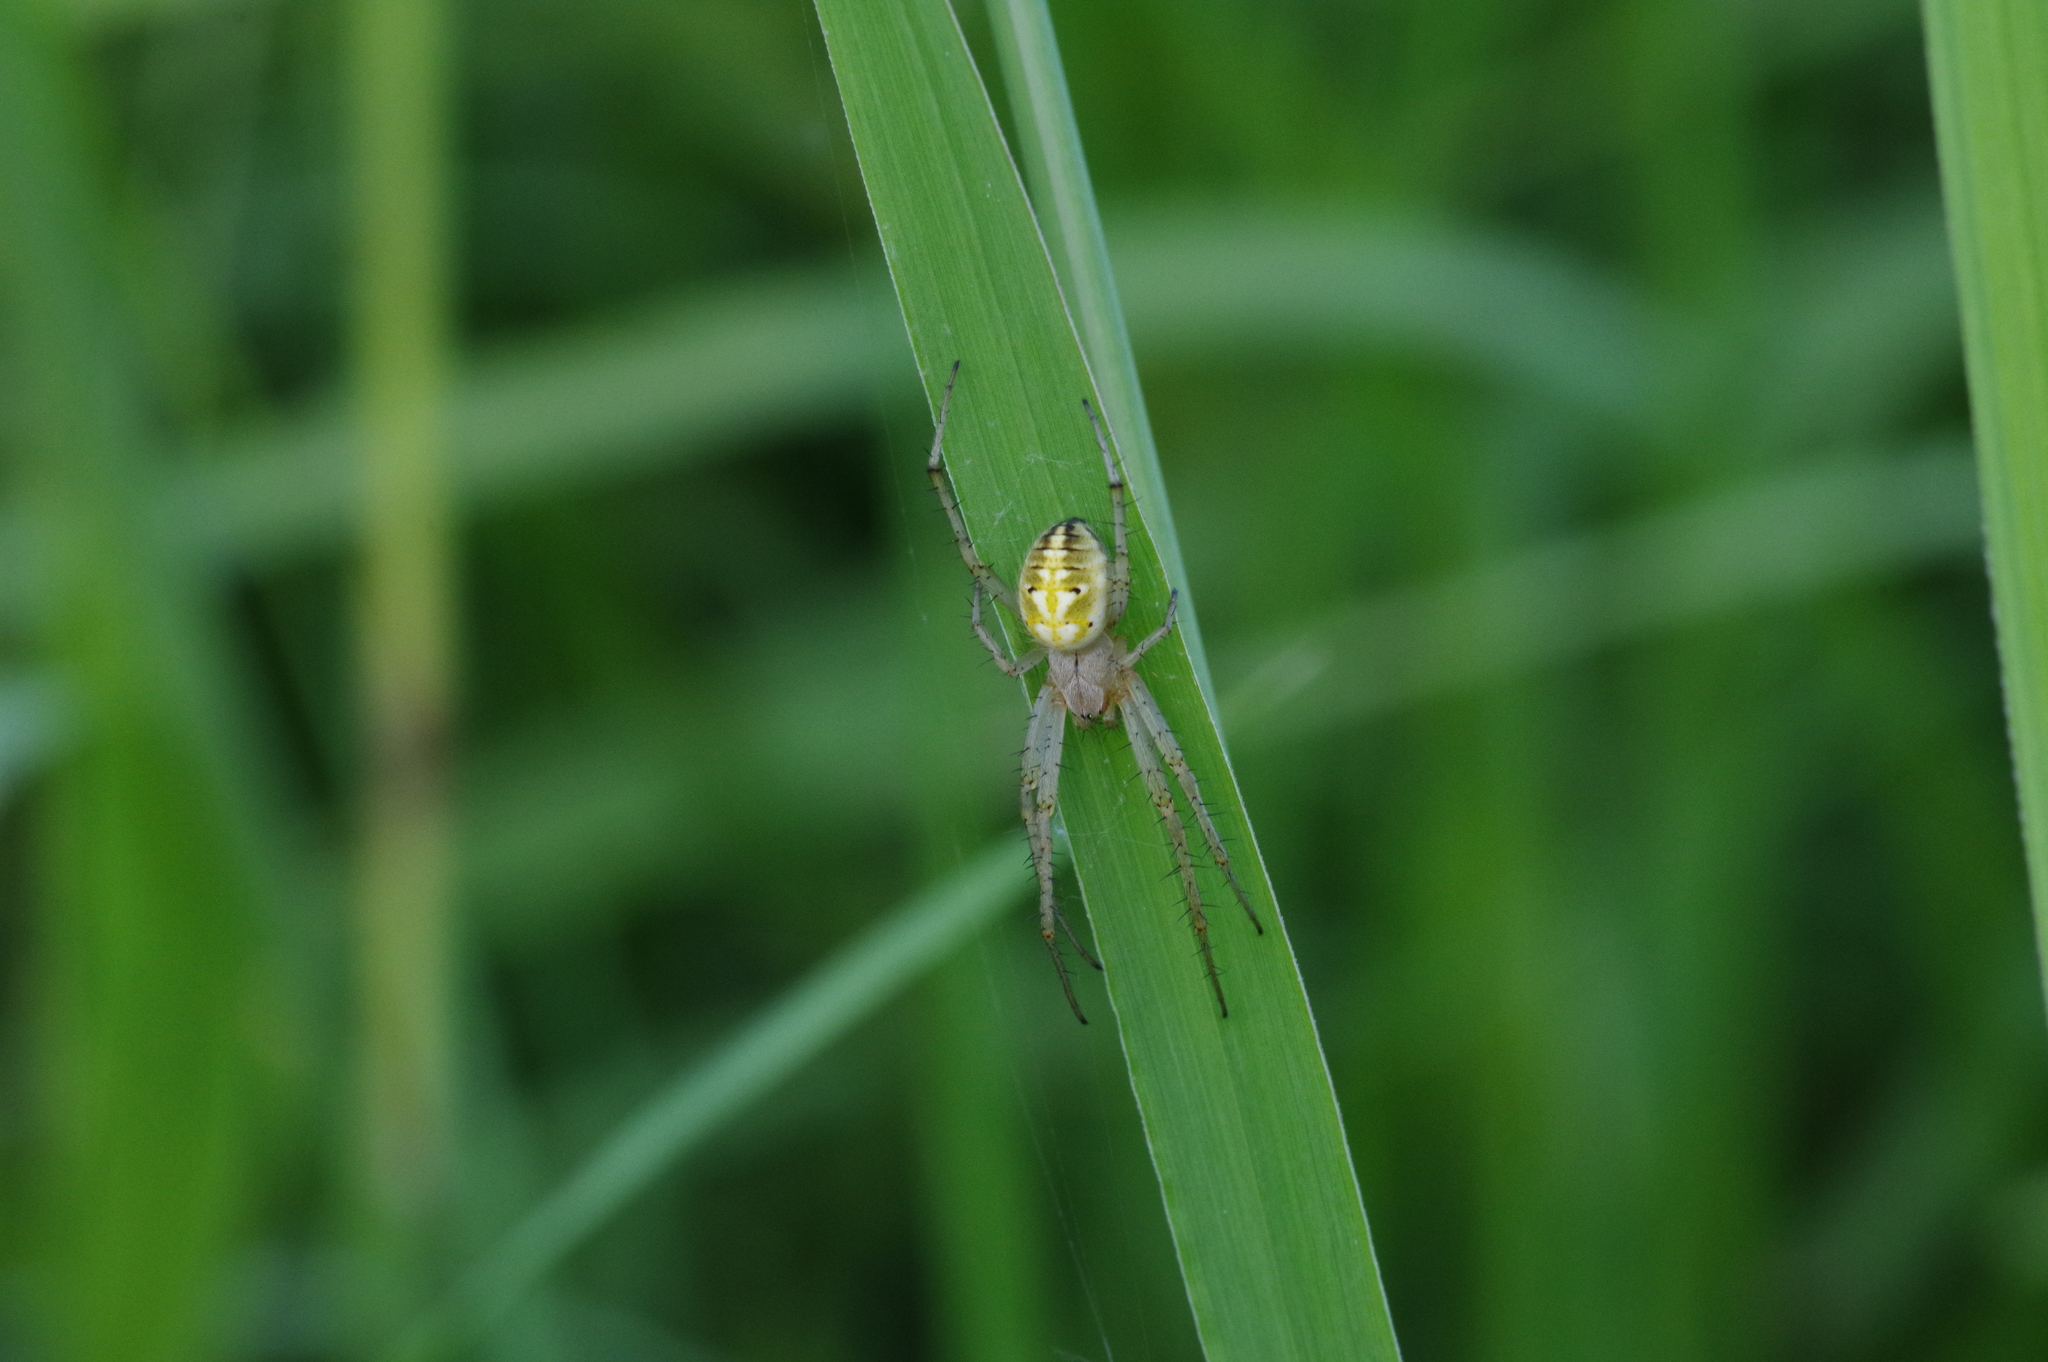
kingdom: Animalia
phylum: Arthropoda
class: Arachnida
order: Araneae
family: Araneidae
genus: Neoscona
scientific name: Neoscona adianta
